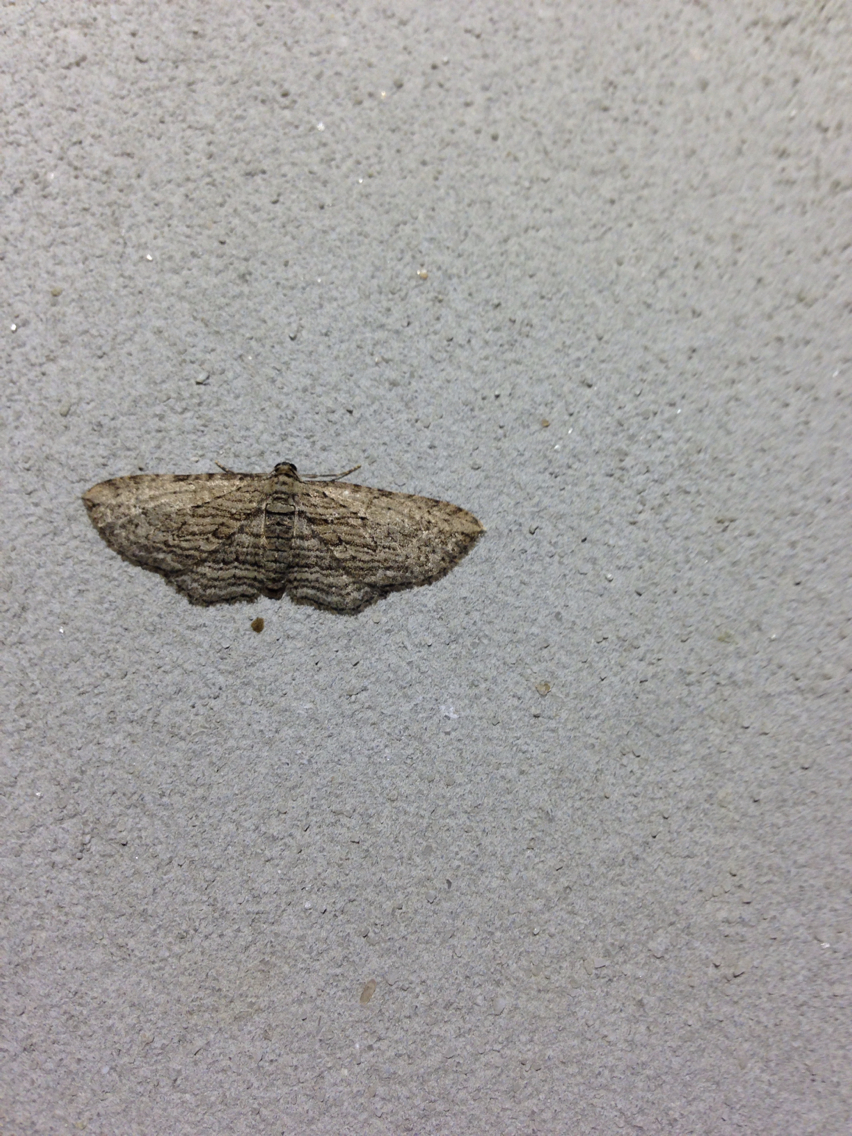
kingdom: Animalia
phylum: Arthropoda
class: Insecta
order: Lepidoptera
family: Geometridae
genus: Horisme
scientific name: Horisme intestinata
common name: Brown bark carpet
